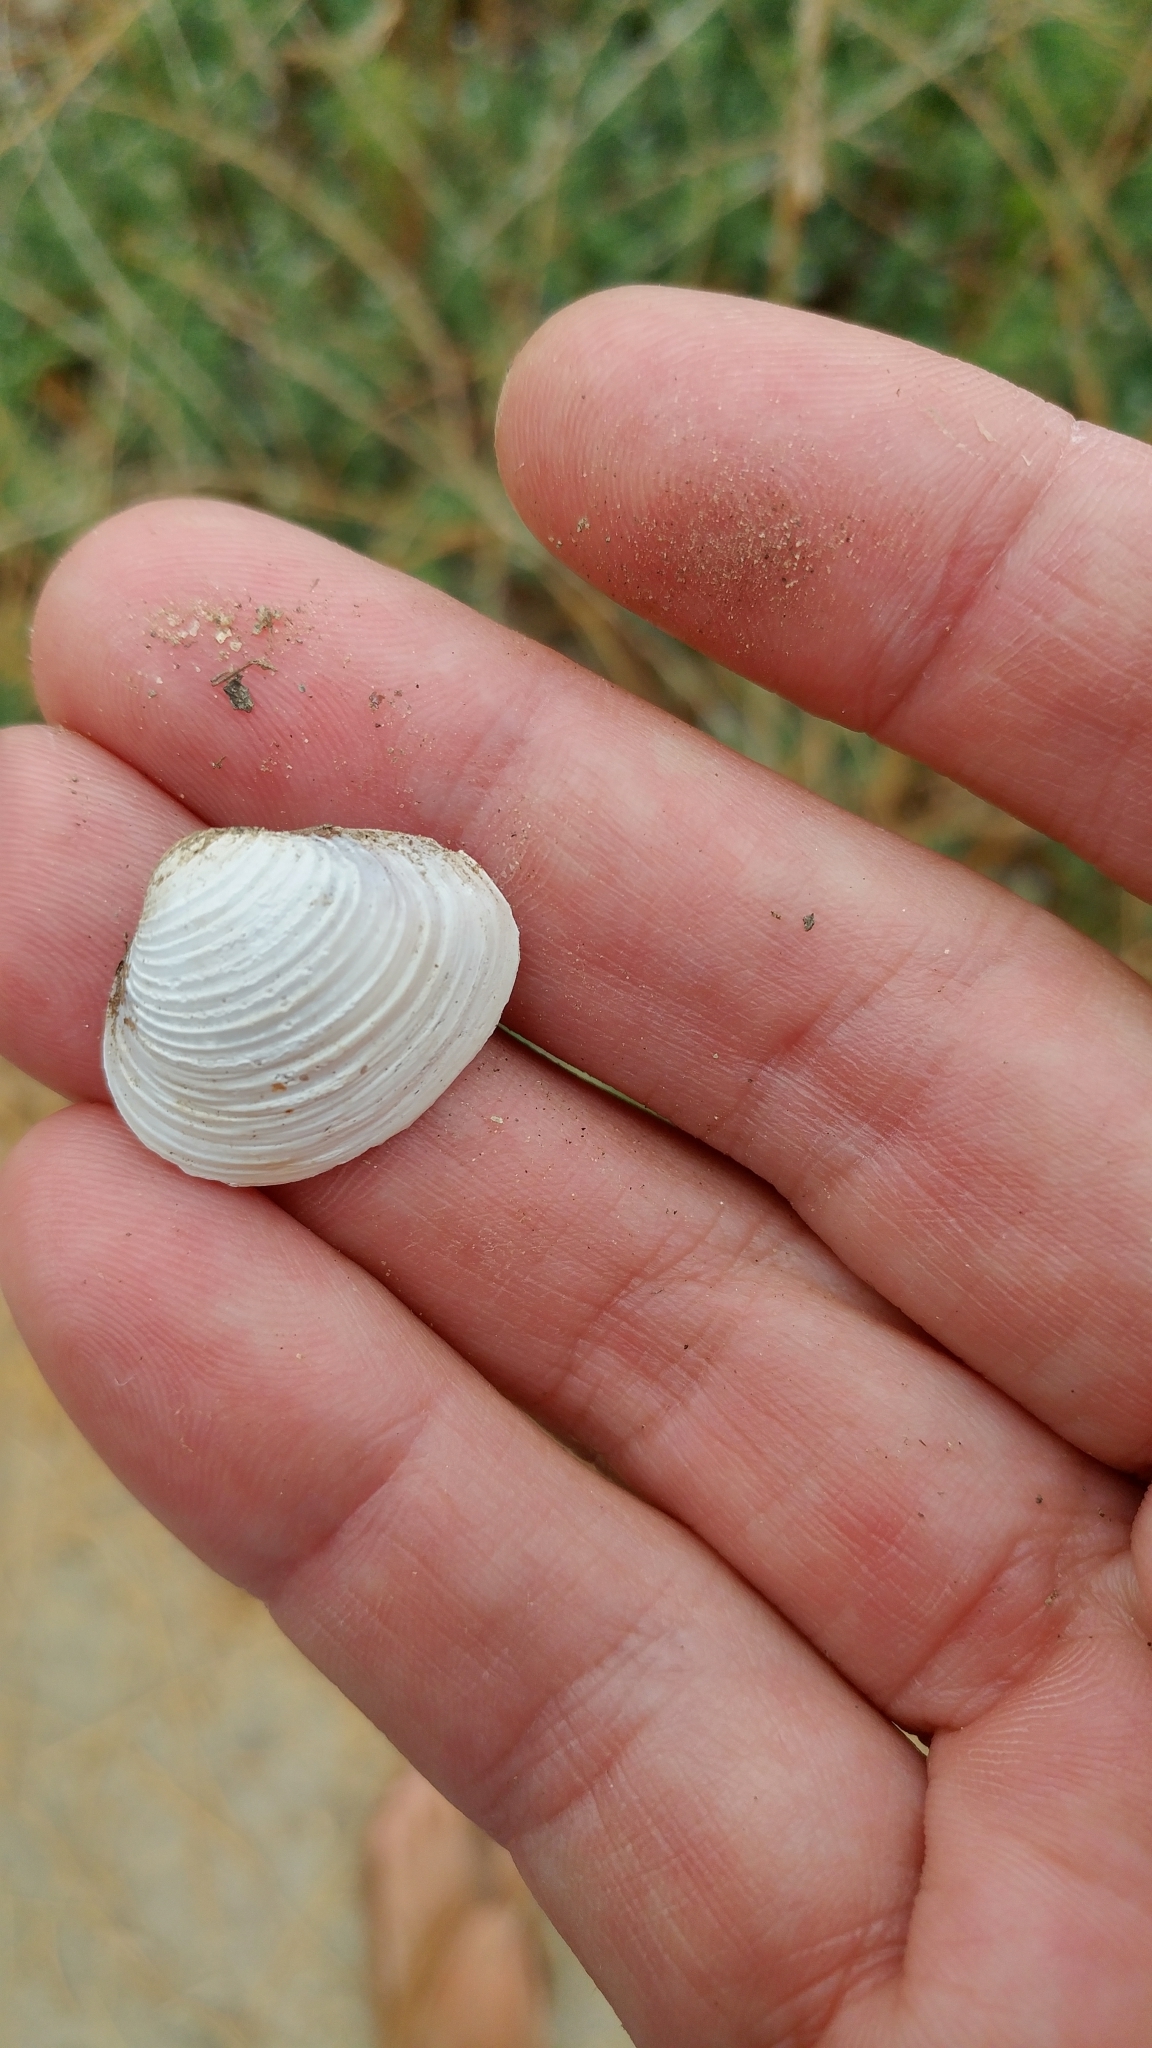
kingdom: Animalia
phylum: Mollusca
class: Bivalvia
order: Venerida
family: Cyrenidae
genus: Corbicula
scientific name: Corbicula fluminea
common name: Asian clam
